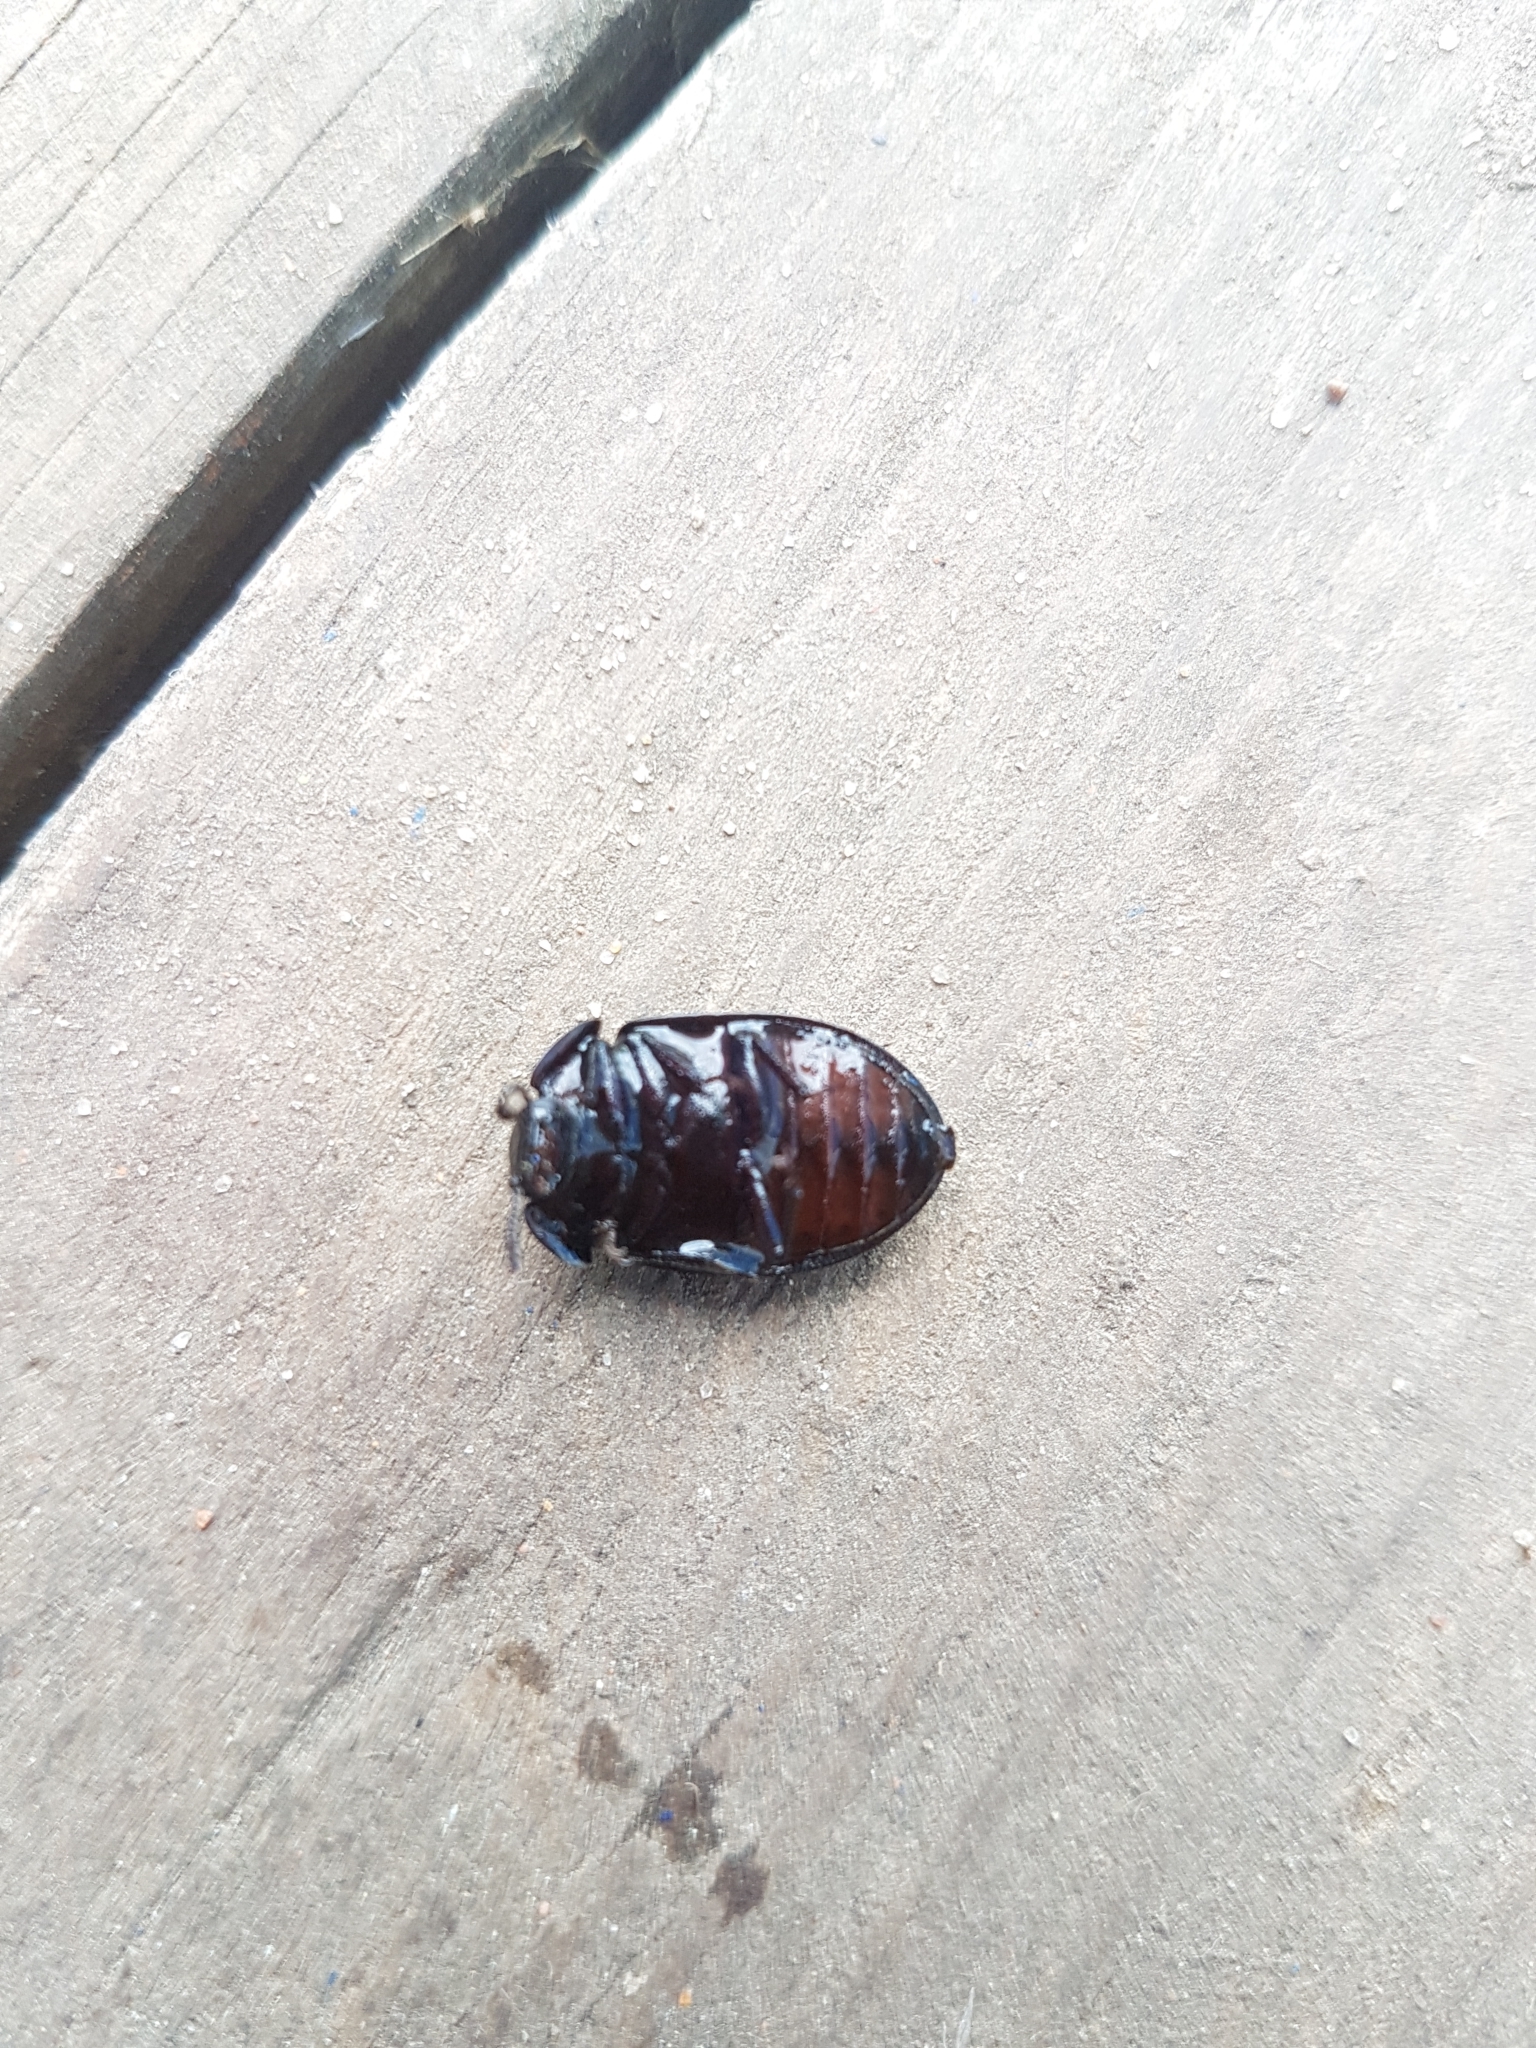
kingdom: Animalia
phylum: Arthropoda
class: Insecta
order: Coleoptera
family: Trogossitidae
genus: Peltis
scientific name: Peltis grossa
